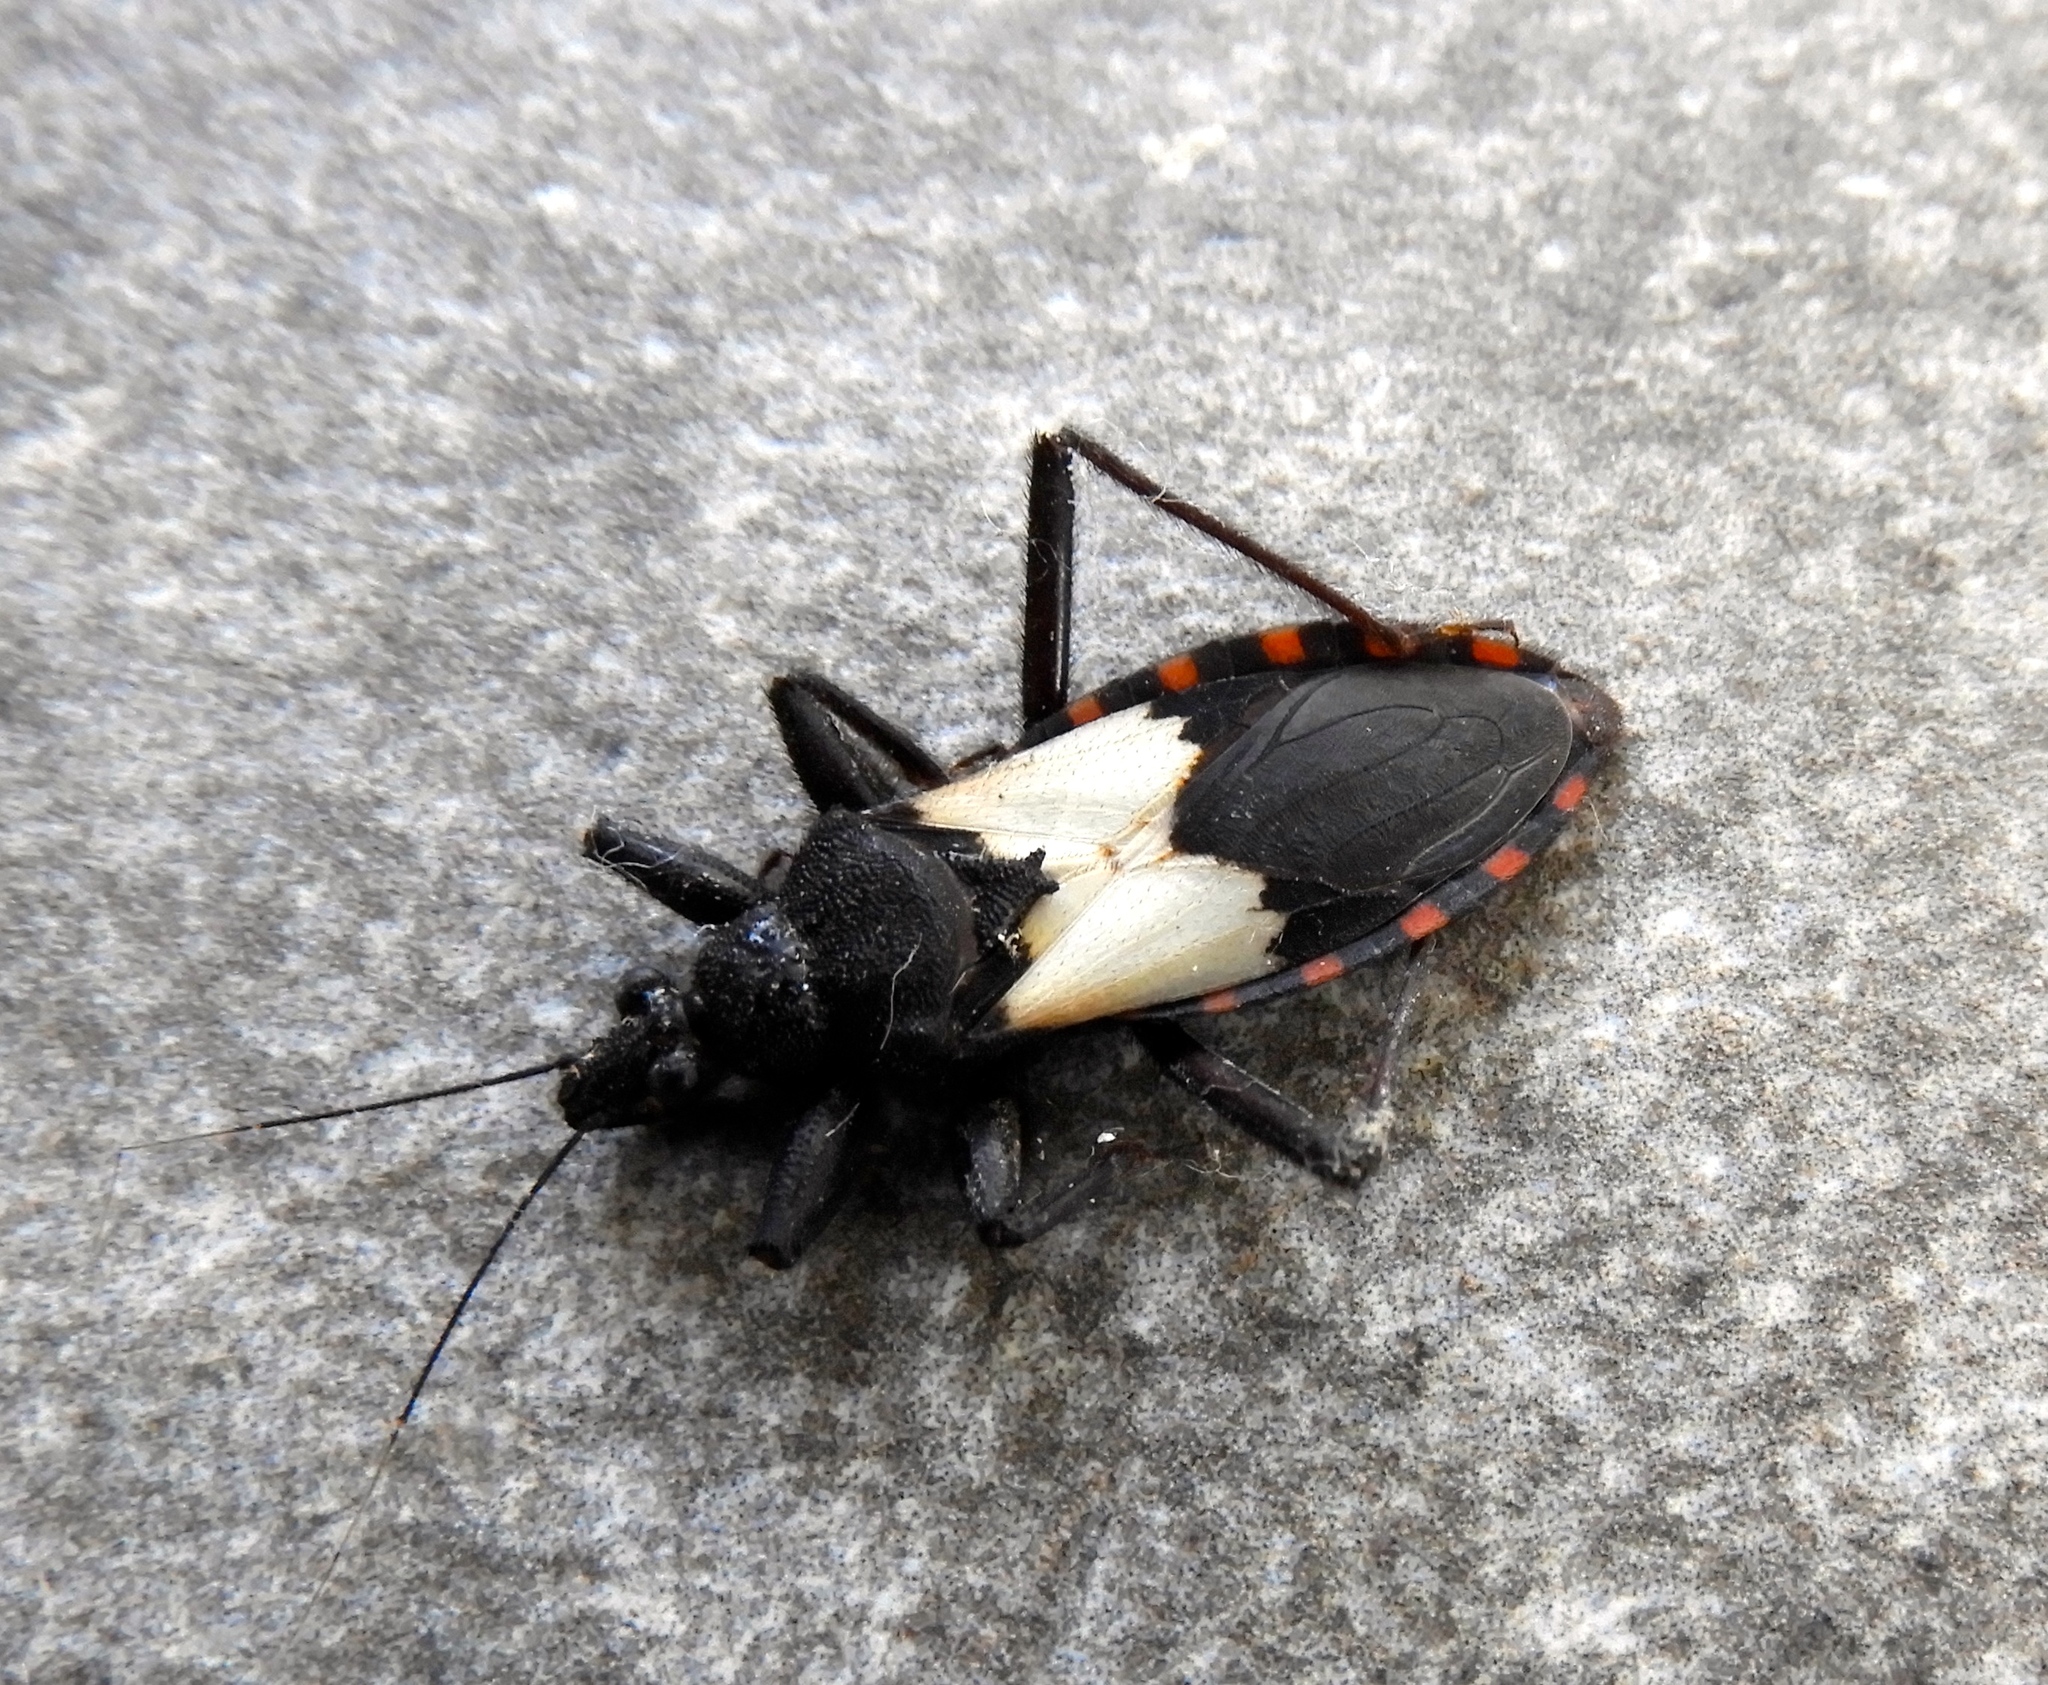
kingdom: Animalia
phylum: Arthropoda
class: Insecta
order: Hemiptera
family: Reduviidae
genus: Microtomus
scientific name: Microtomus luctuosus
